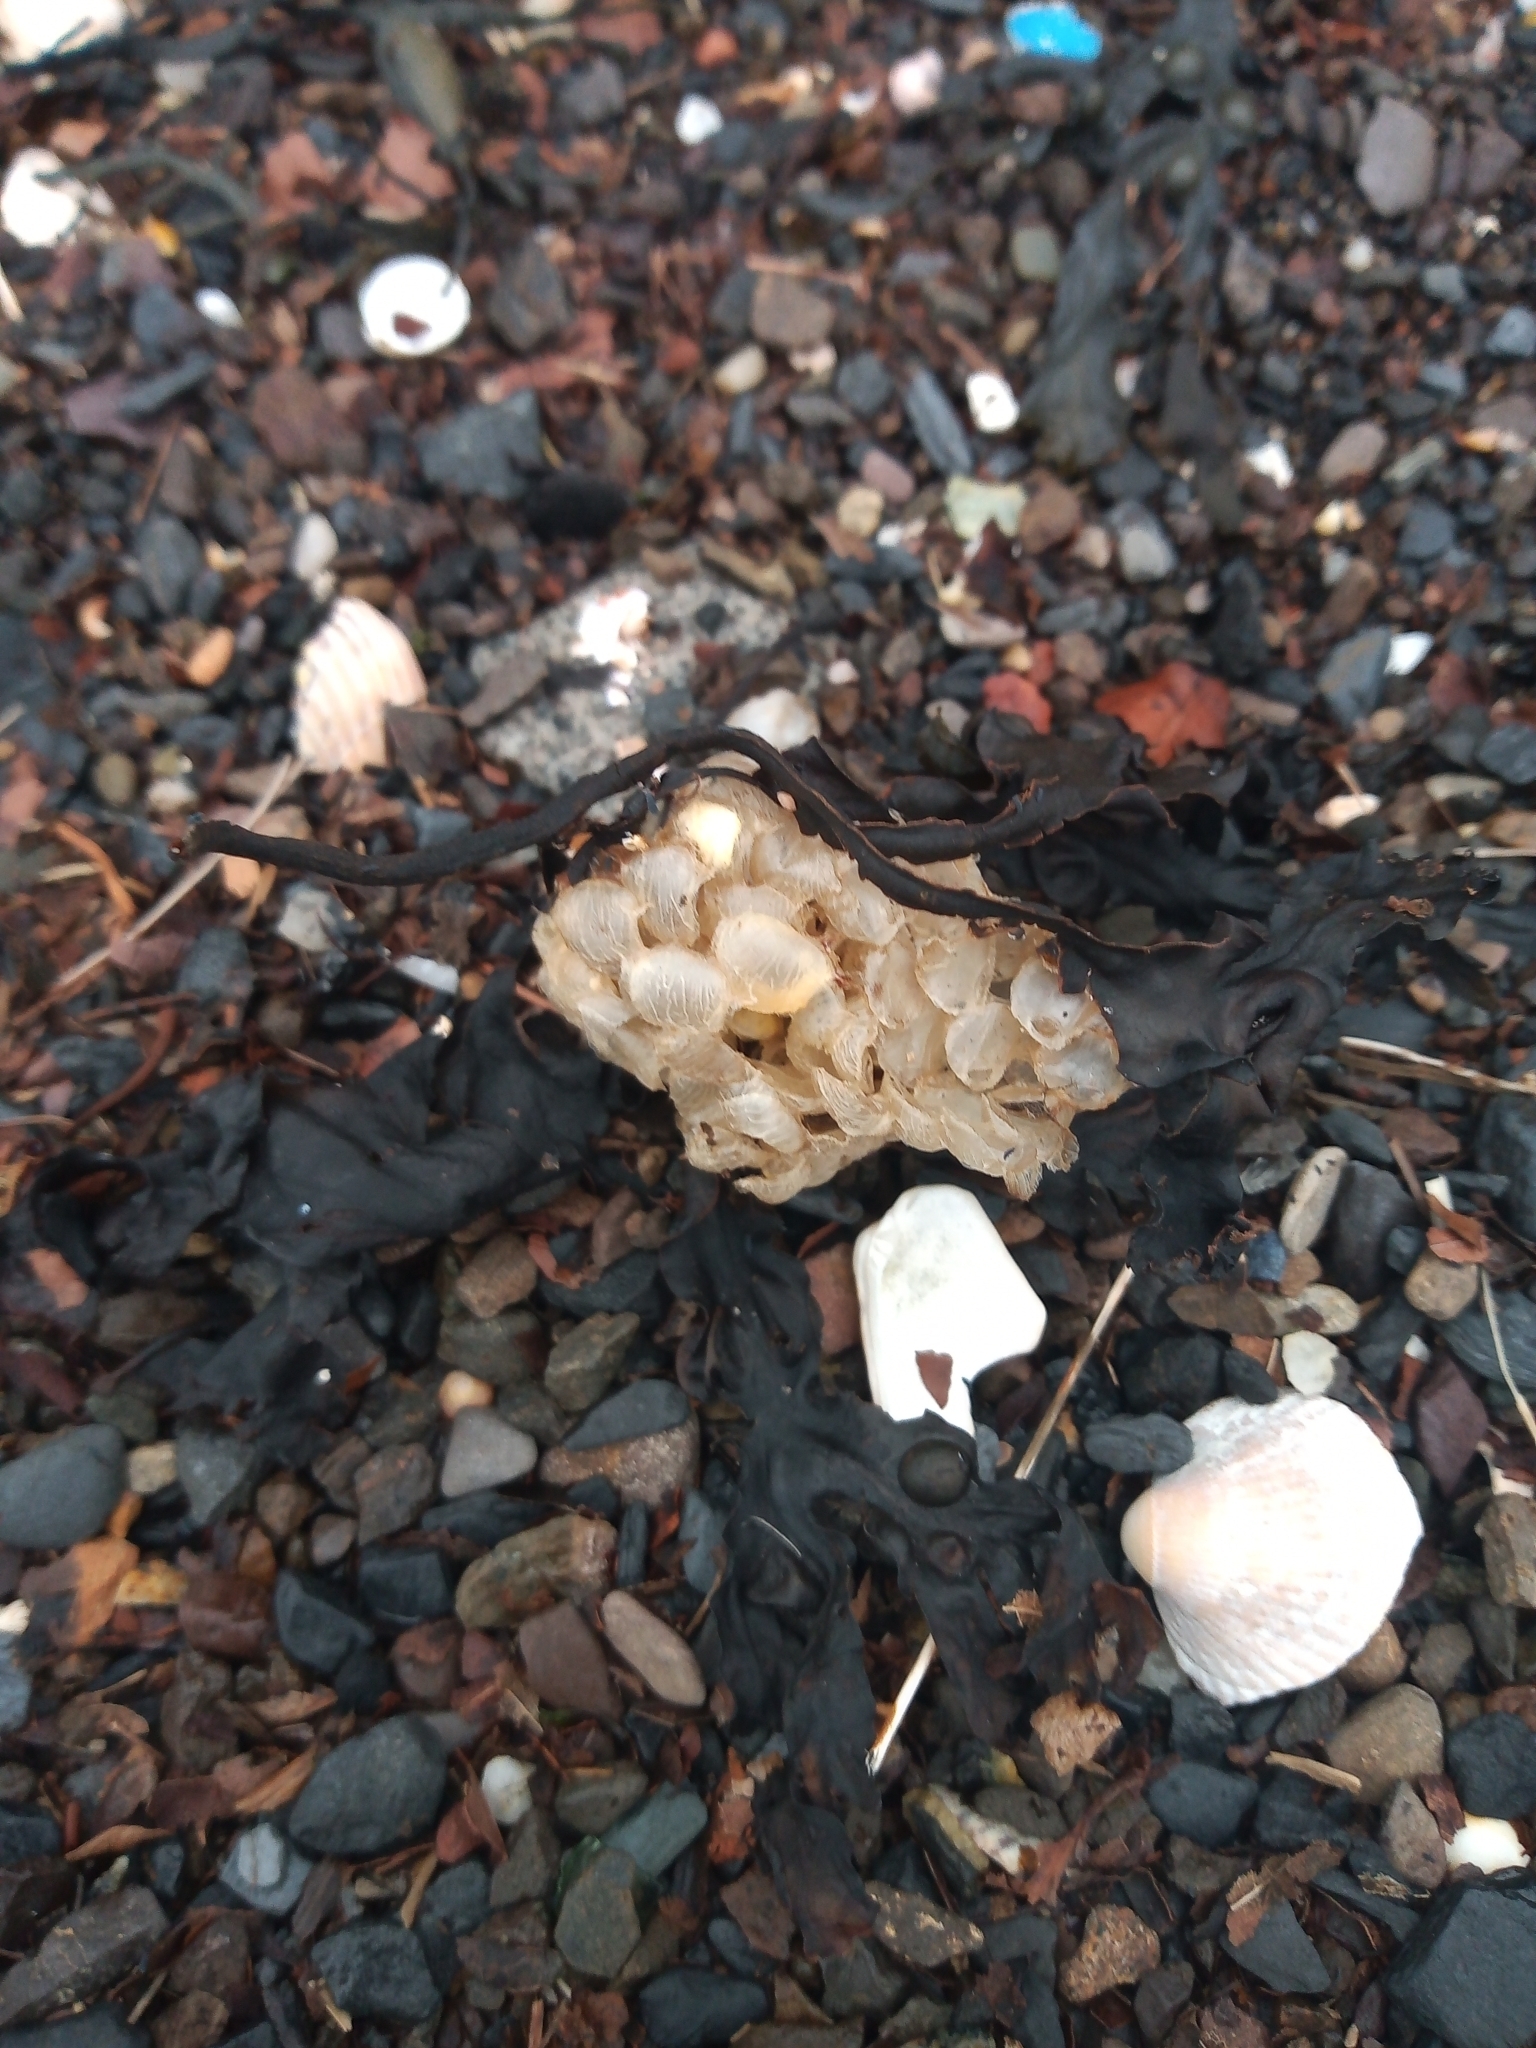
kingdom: Animalia
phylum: Mollusca
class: Gastropoda
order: Neogastropoda
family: Buccinidae
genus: Buccinum
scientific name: Buccinum undatum
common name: Common whelk
